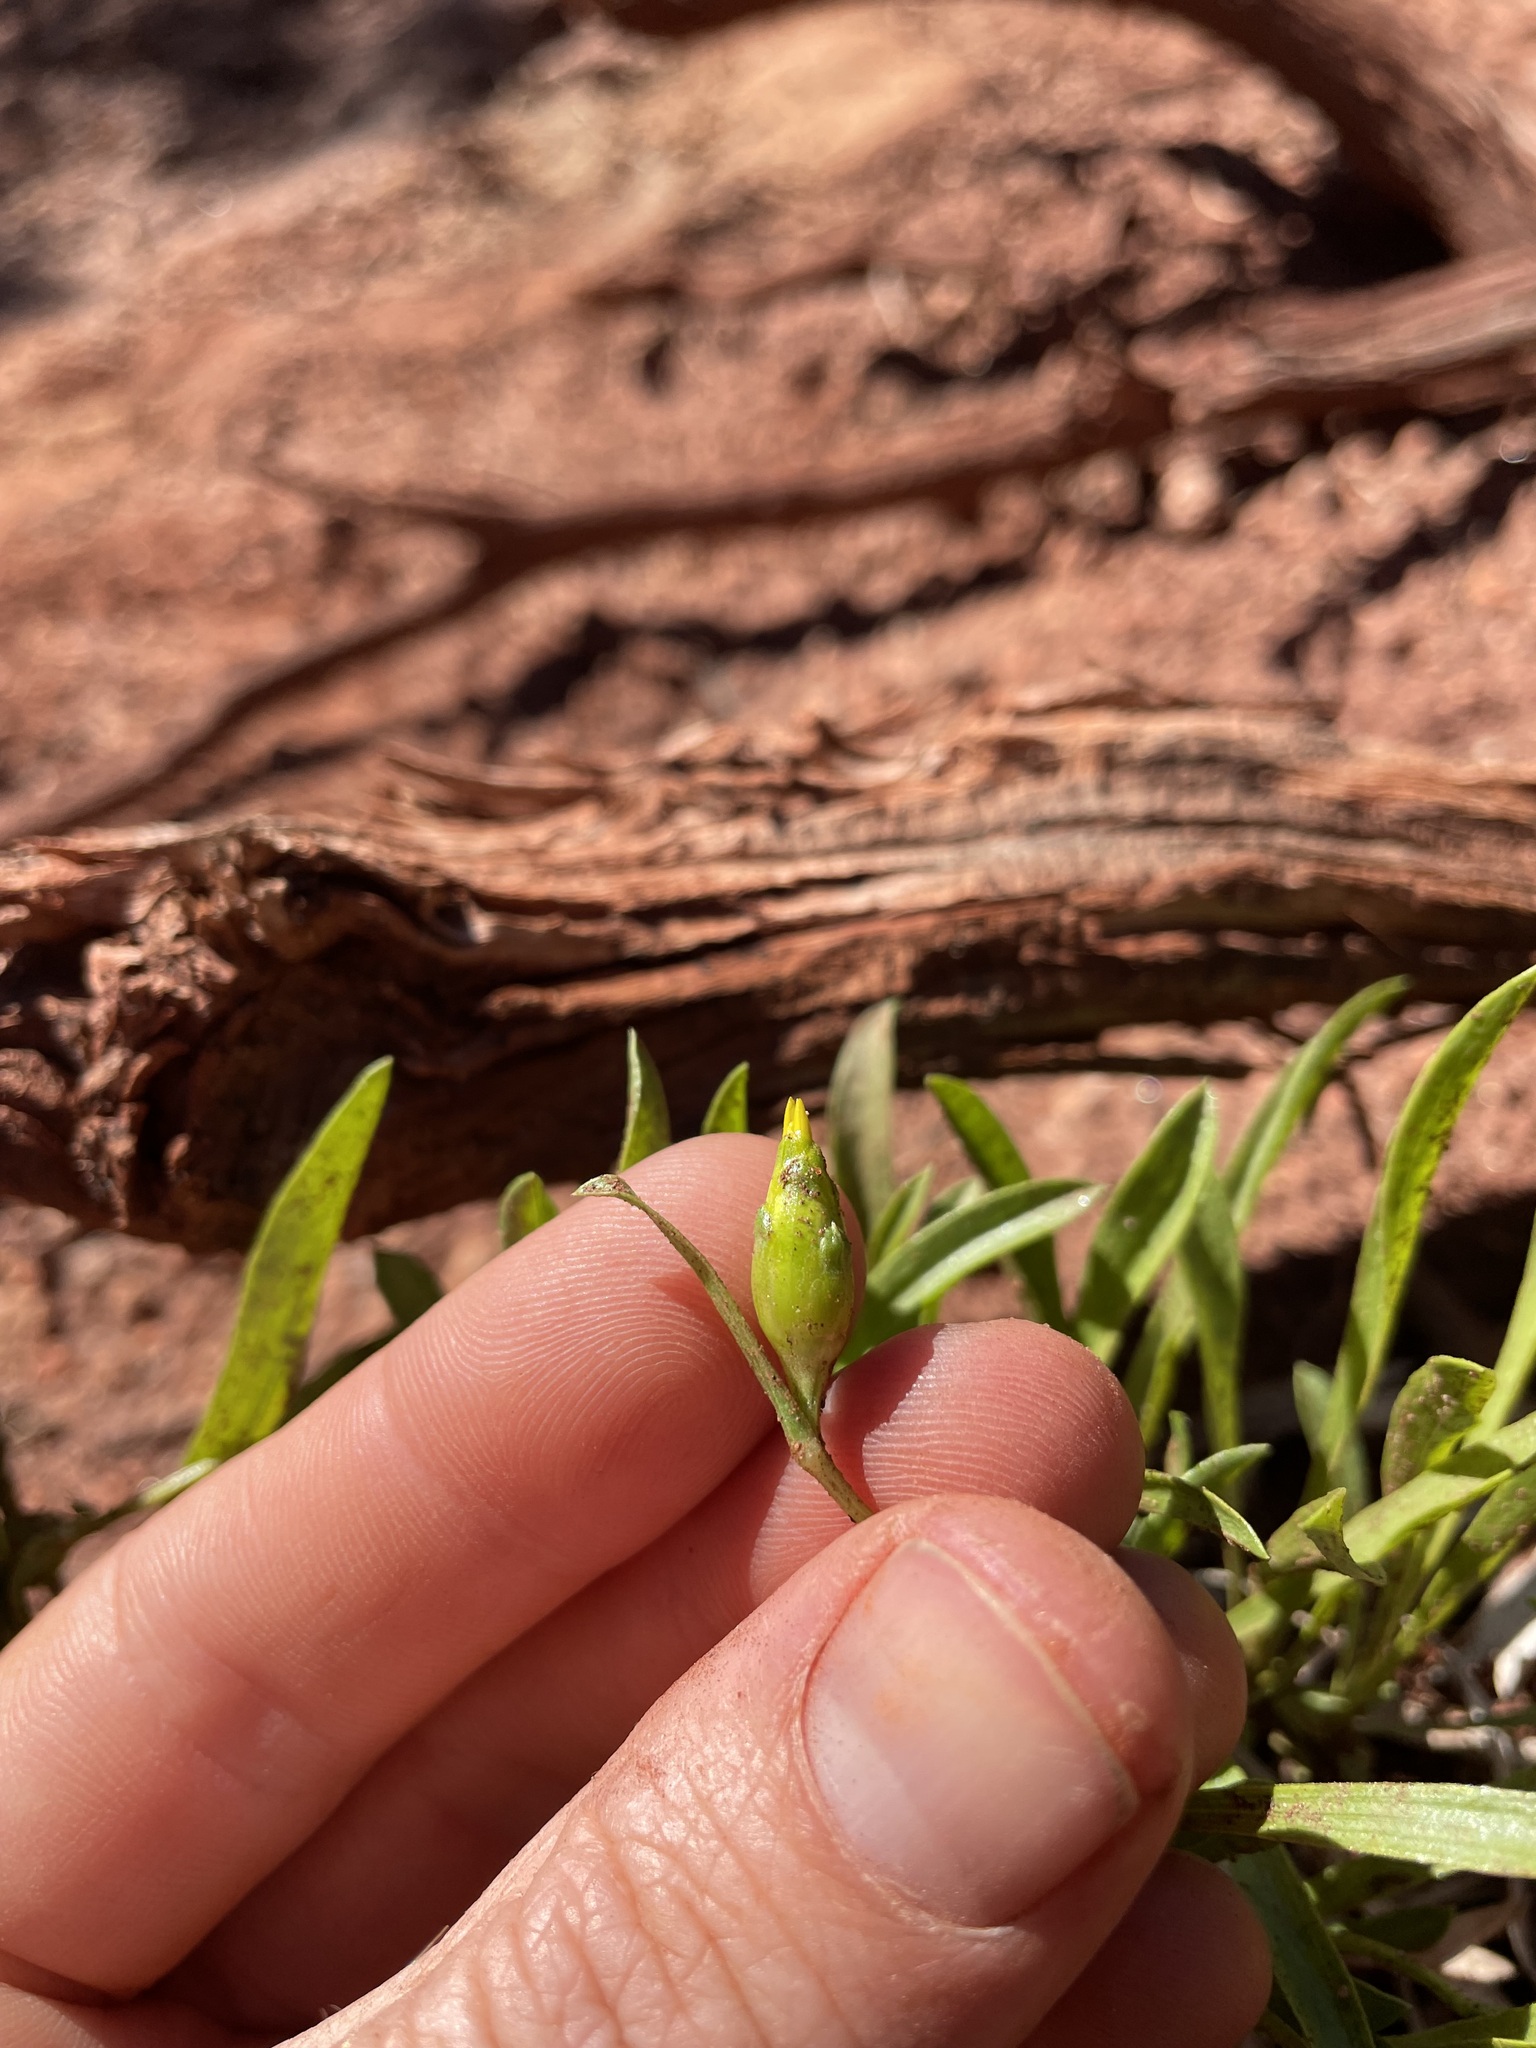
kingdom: Plantae
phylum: Tracheophyta
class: Magnoliopsida
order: Asterales
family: Asteraceae
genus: Stenotus
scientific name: Stenotus armerioides
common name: Thrifty goldenweed
